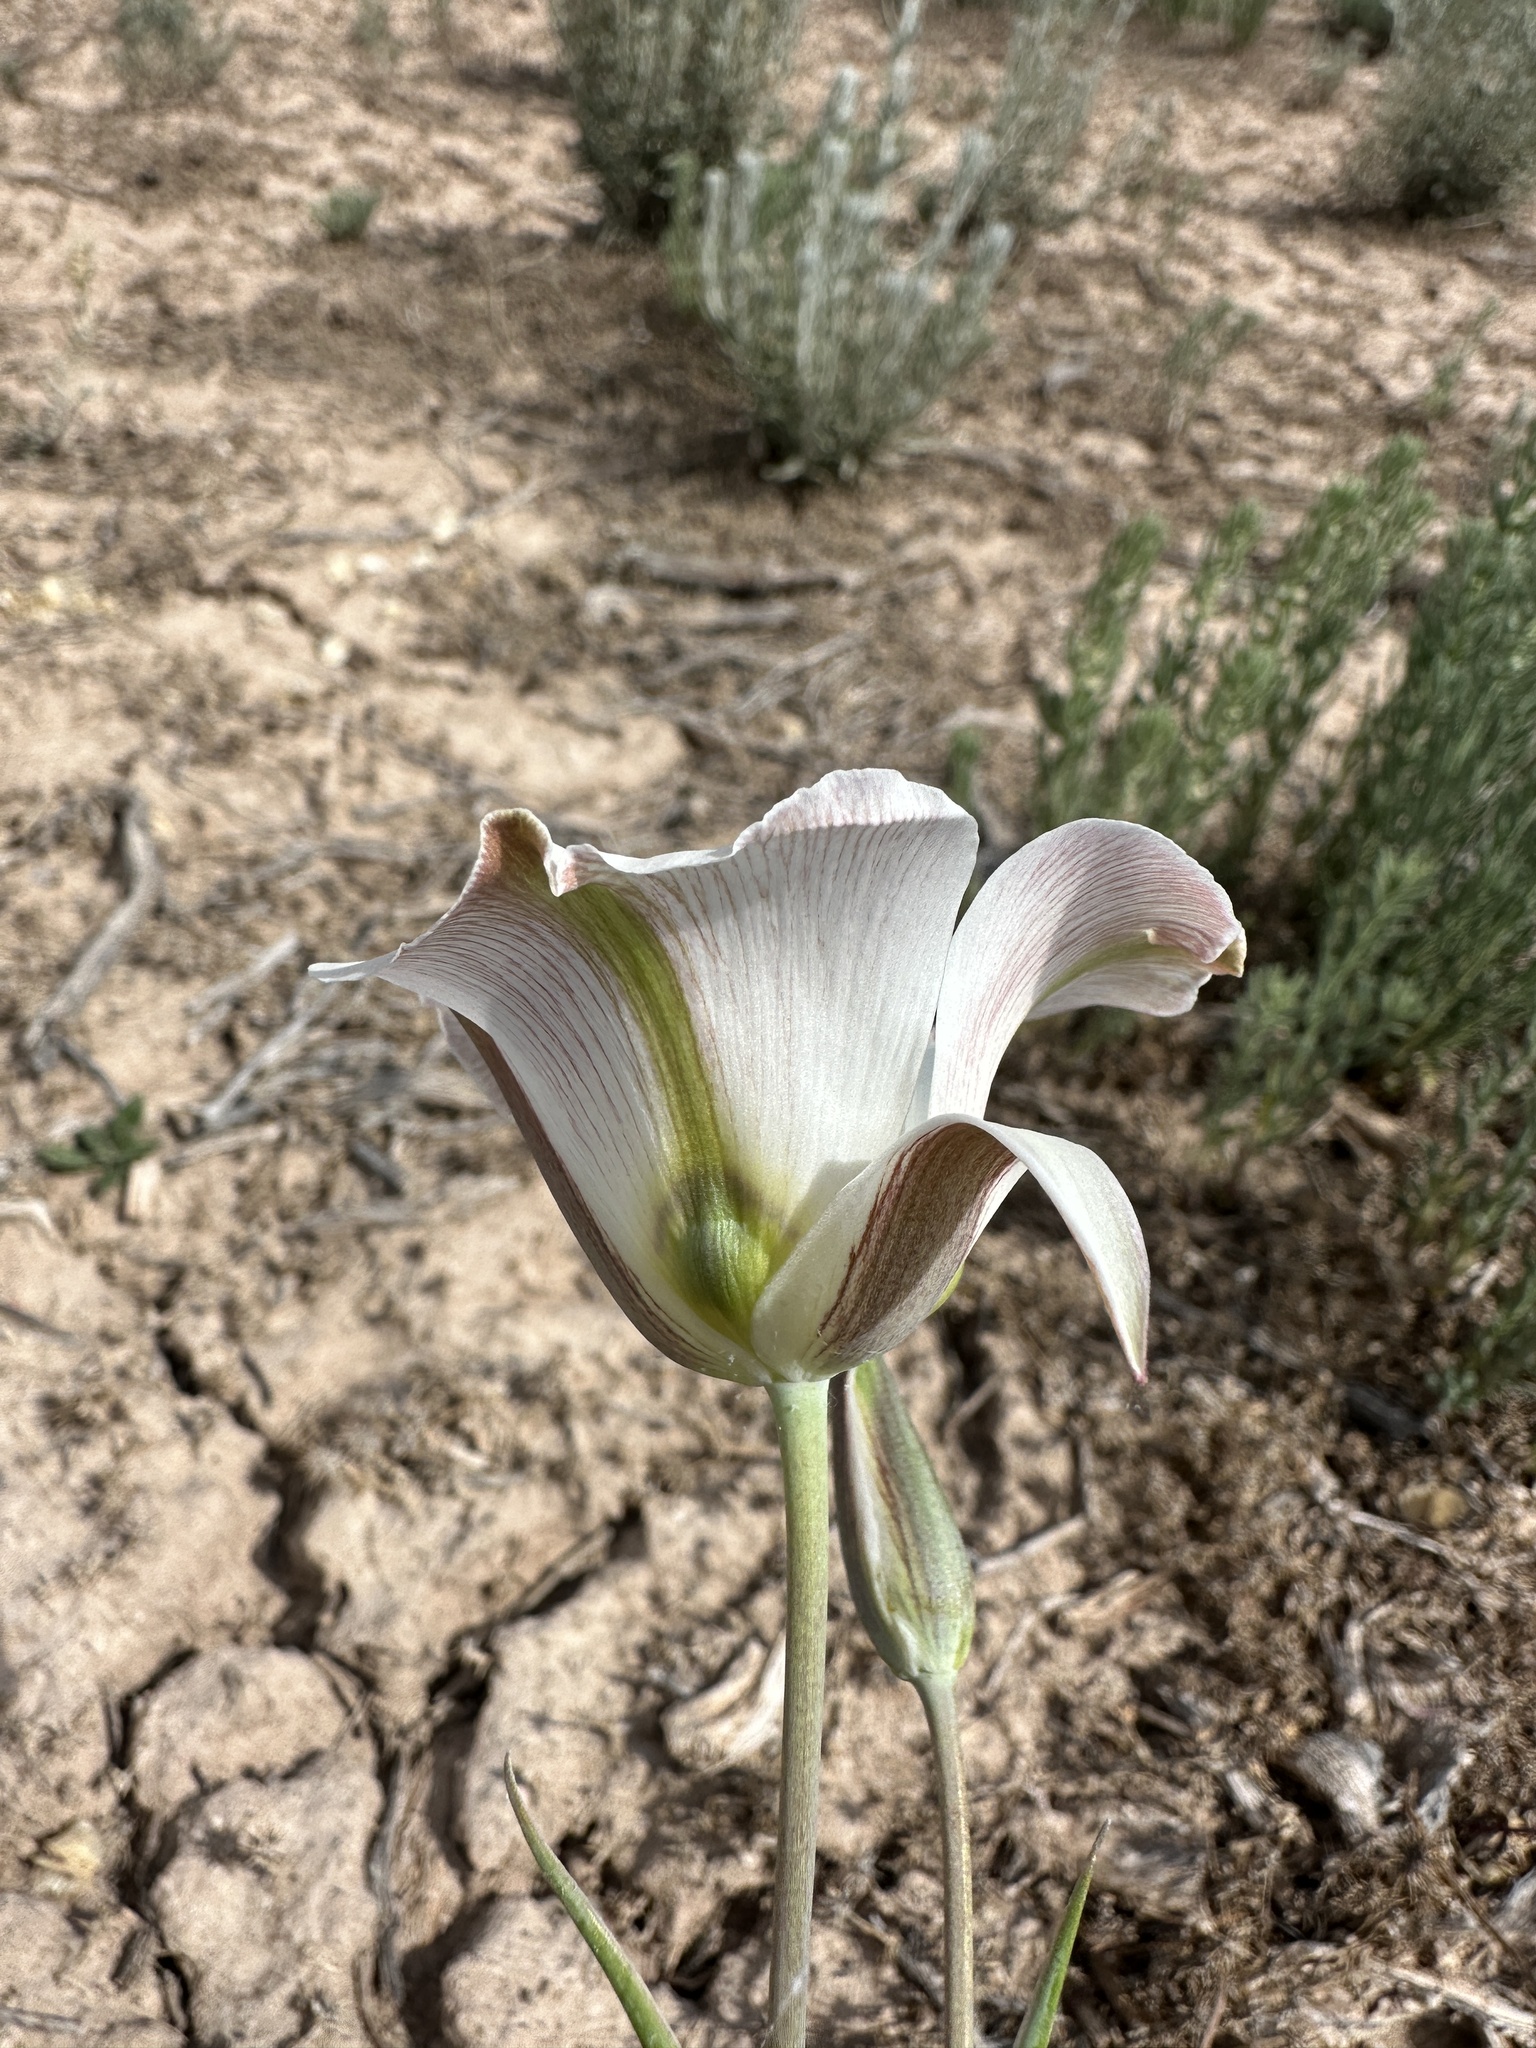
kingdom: Plantae
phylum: Tracheophyta
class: Liliopsida
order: Liliales
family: Liliaceae
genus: Calochortus
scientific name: Calochortus nuttallii
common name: Sego-lily
